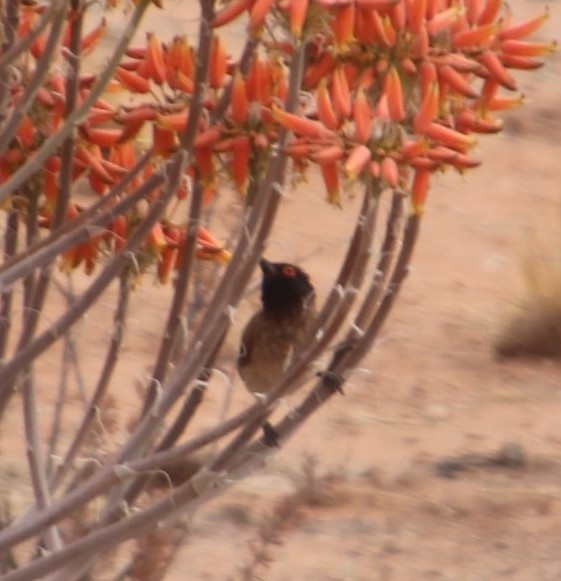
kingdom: Animalia
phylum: Chordata
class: Aves
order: Passeriformes
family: Pycnonotidae
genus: Pycnonotus
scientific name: Pycnonotus nigricans
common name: African red-eyed bulbul
